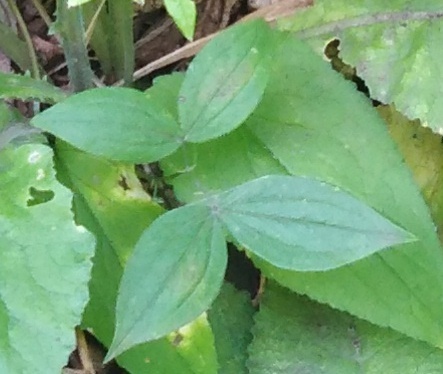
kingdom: Plantae
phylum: Tracheophyta
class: Magnoliopsida
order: Fabales
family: Fabaceae
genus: Lathyrus
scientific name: Lathyrus vernus
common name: Spring pea
